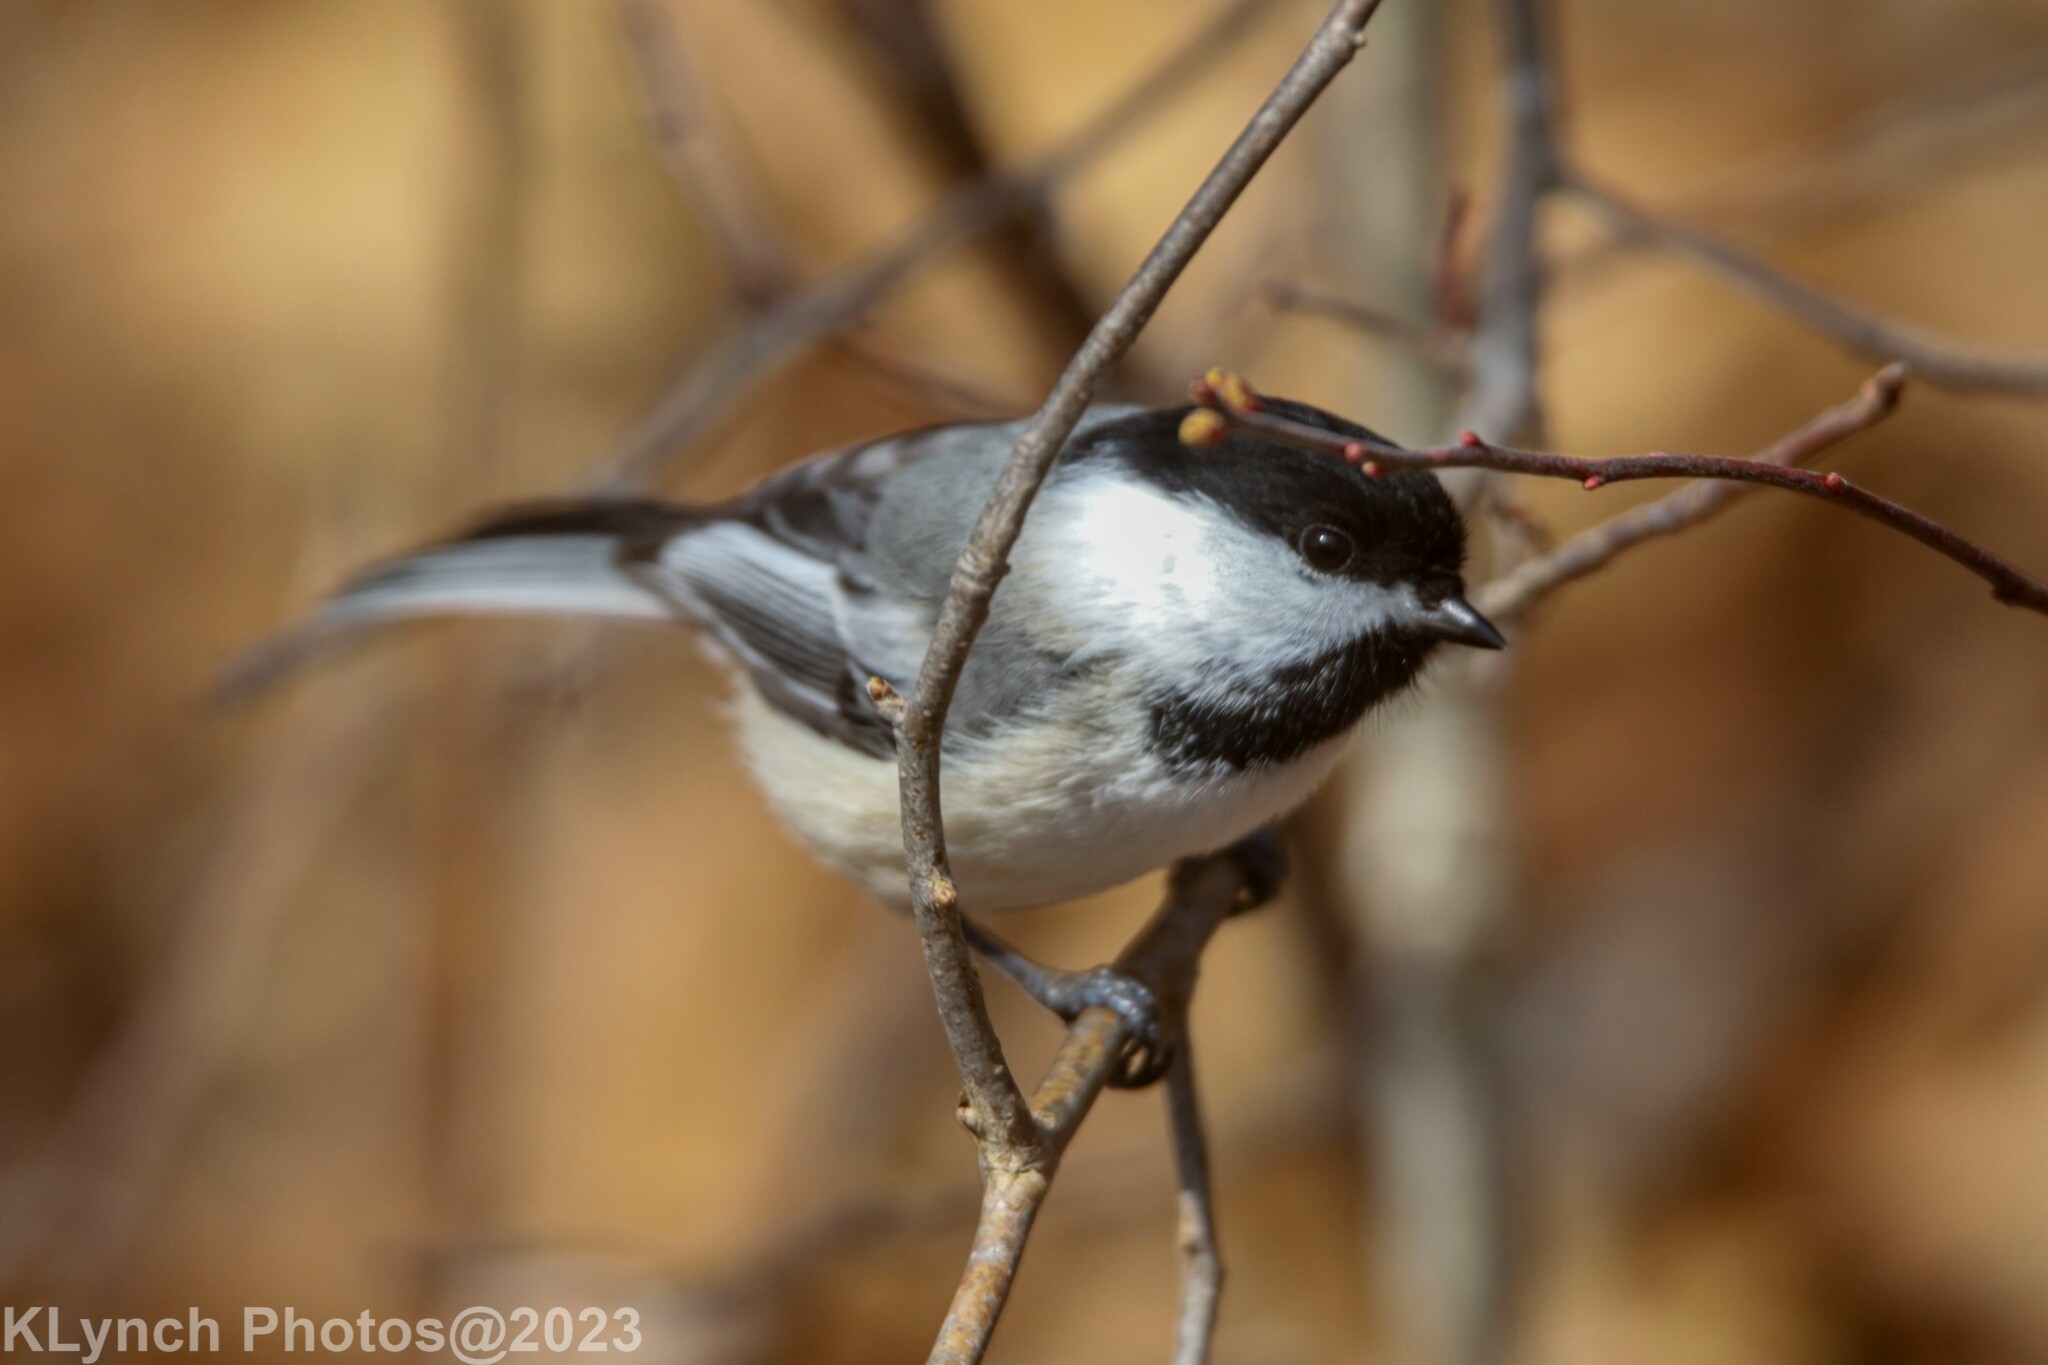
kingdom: Animalia
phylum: Chordata
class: Aves
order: Passeriformes
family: Paridae
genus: Poecile
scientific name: Poecile atricapillus
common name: Black-capped chickadee
